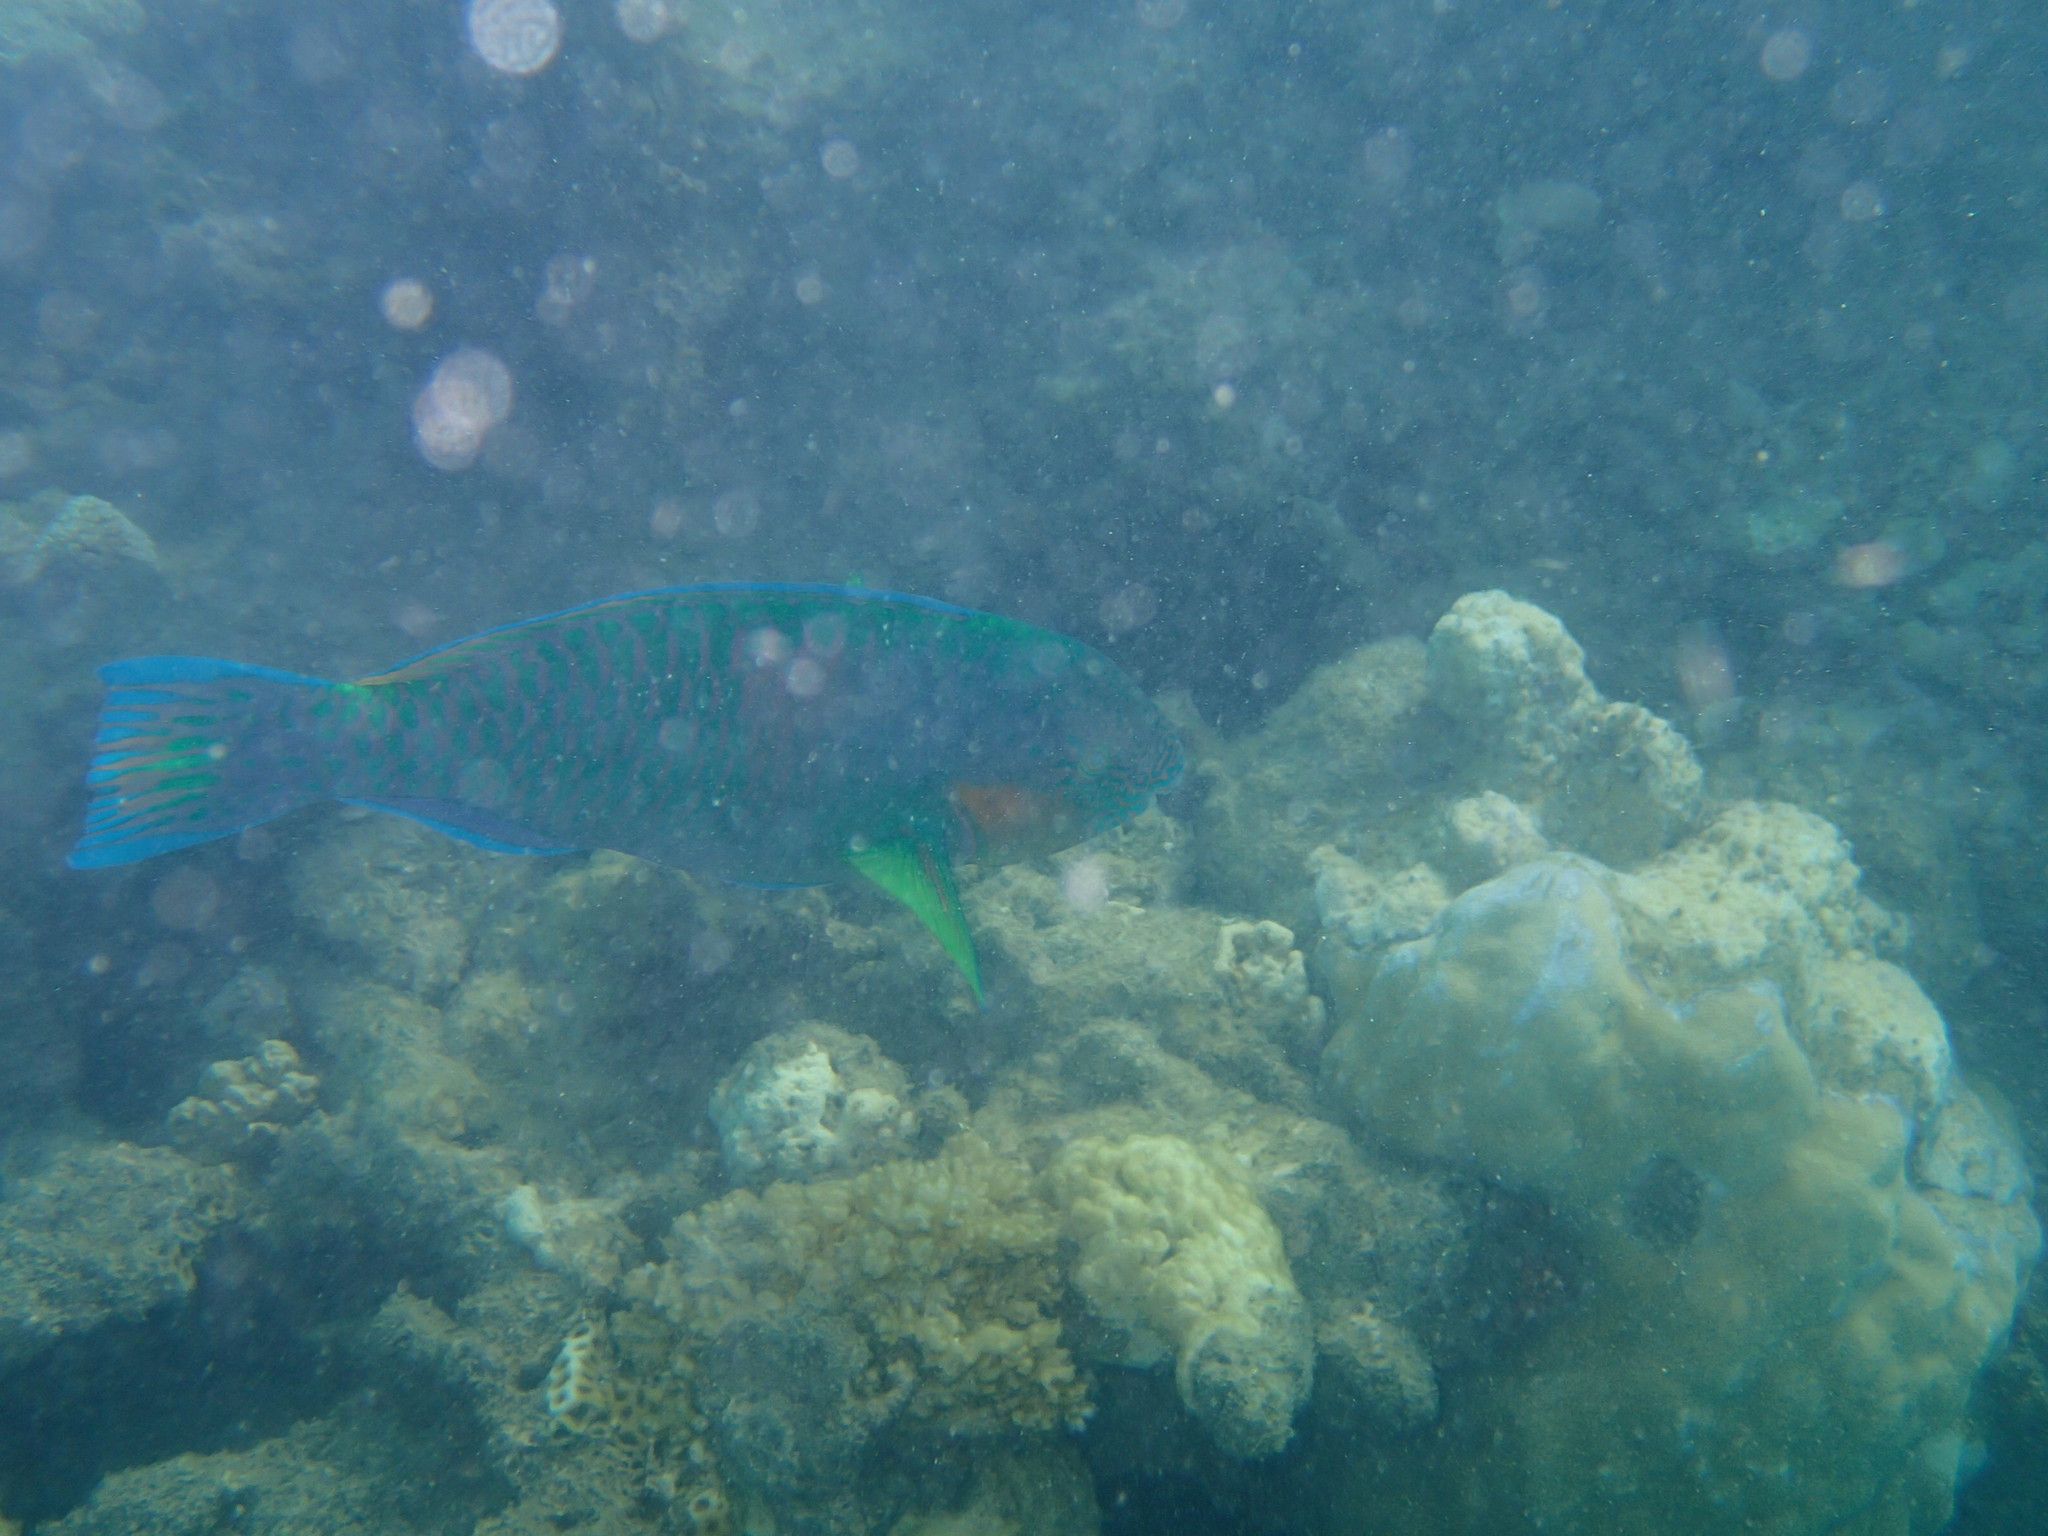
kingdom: Animalia
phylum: Chordata
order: Perciformes
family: Scaridae
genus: Scarus
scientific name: Scarus rivulatus
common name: Surf parrotfish
